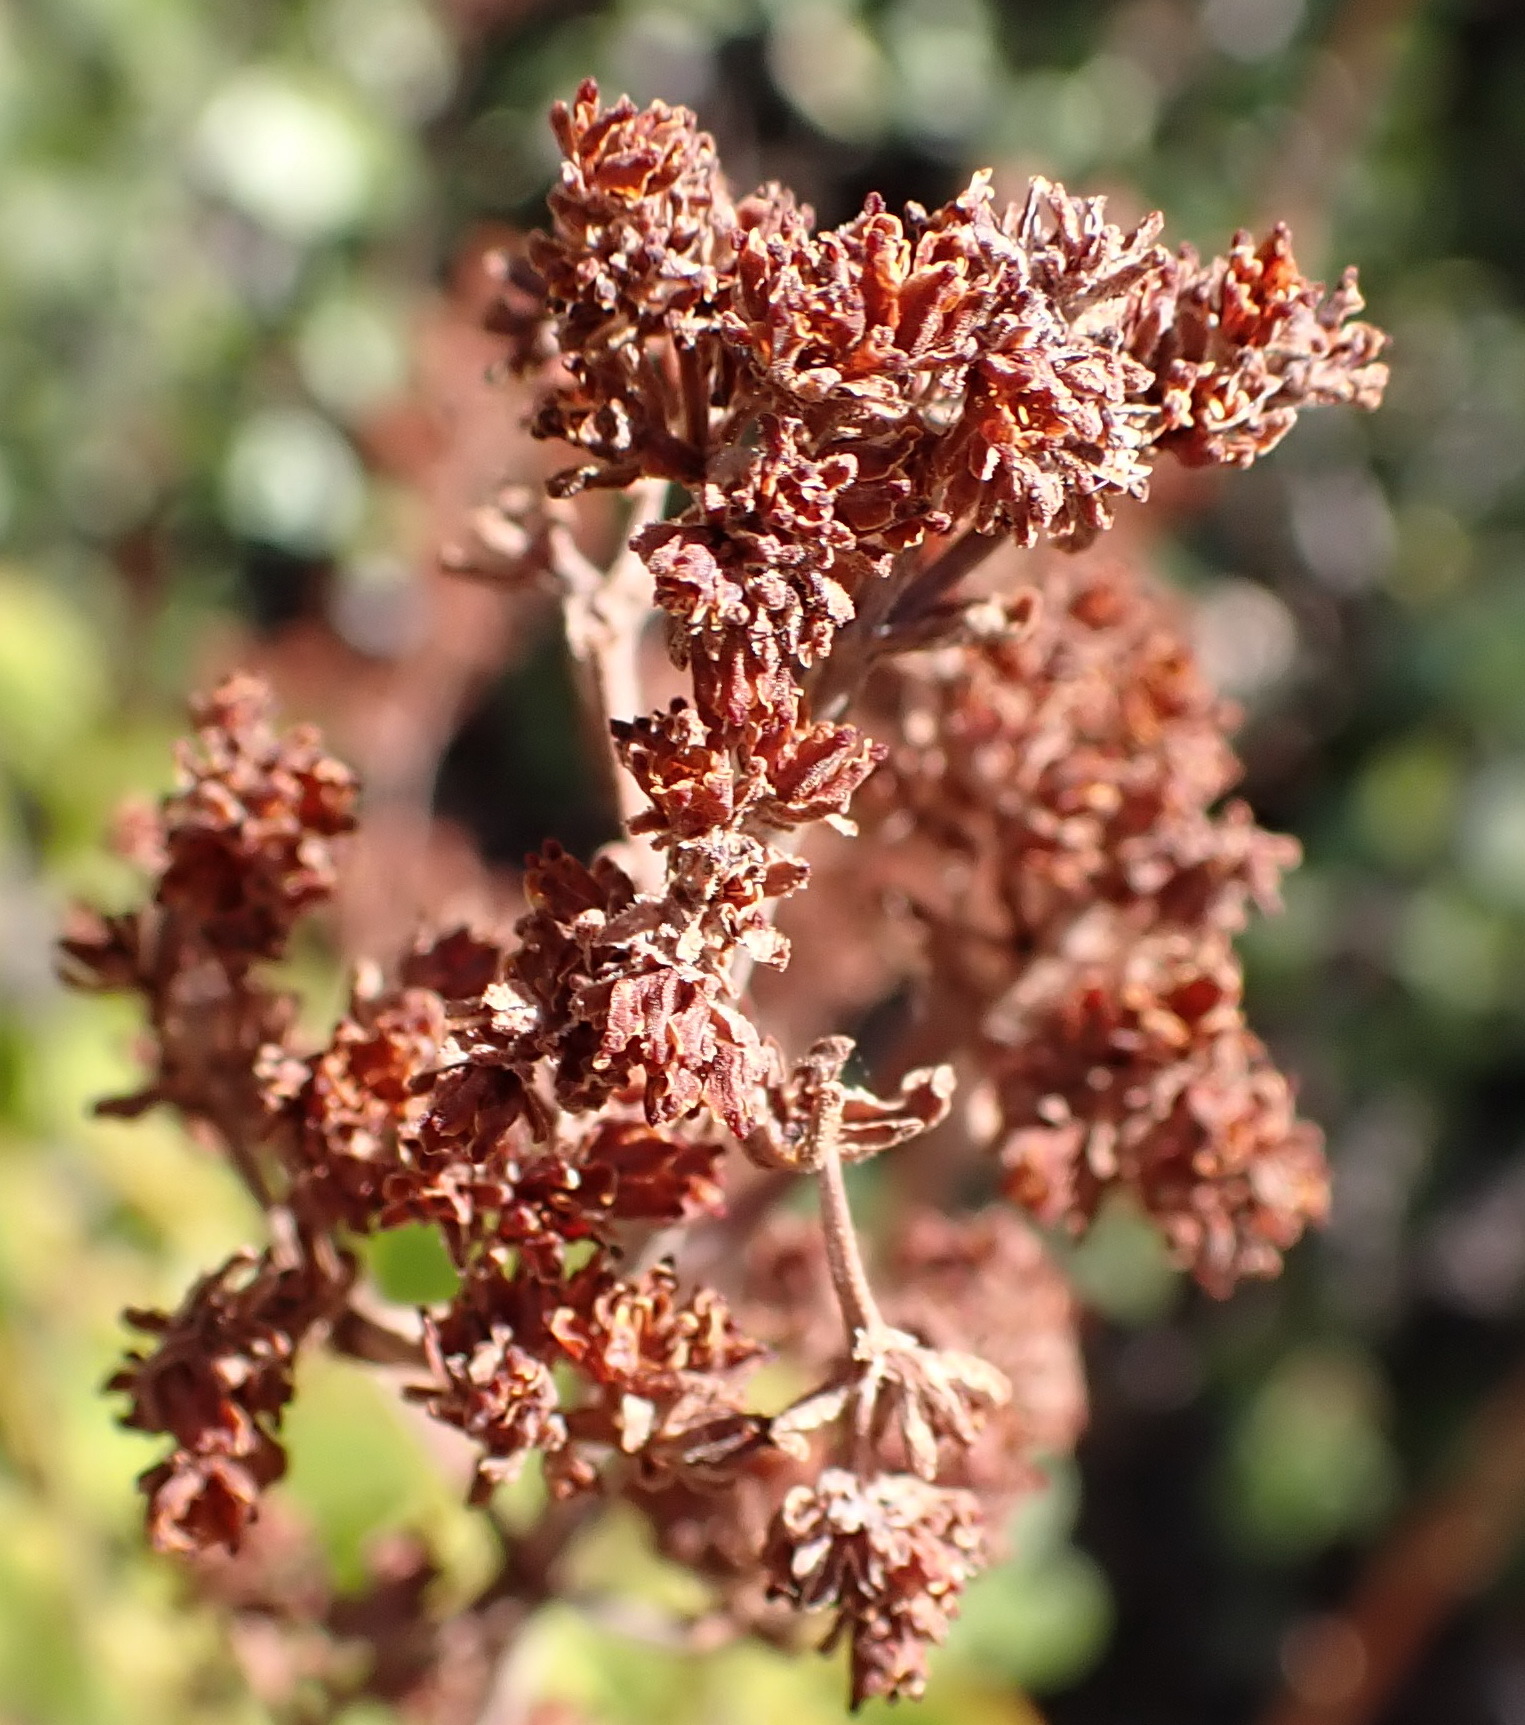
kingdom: Plantae
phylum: Tracheophyta
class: Magnoliopsida
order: Saxifragales
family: Crassulaceae
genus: Crassula
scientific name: Crassula cultrata
